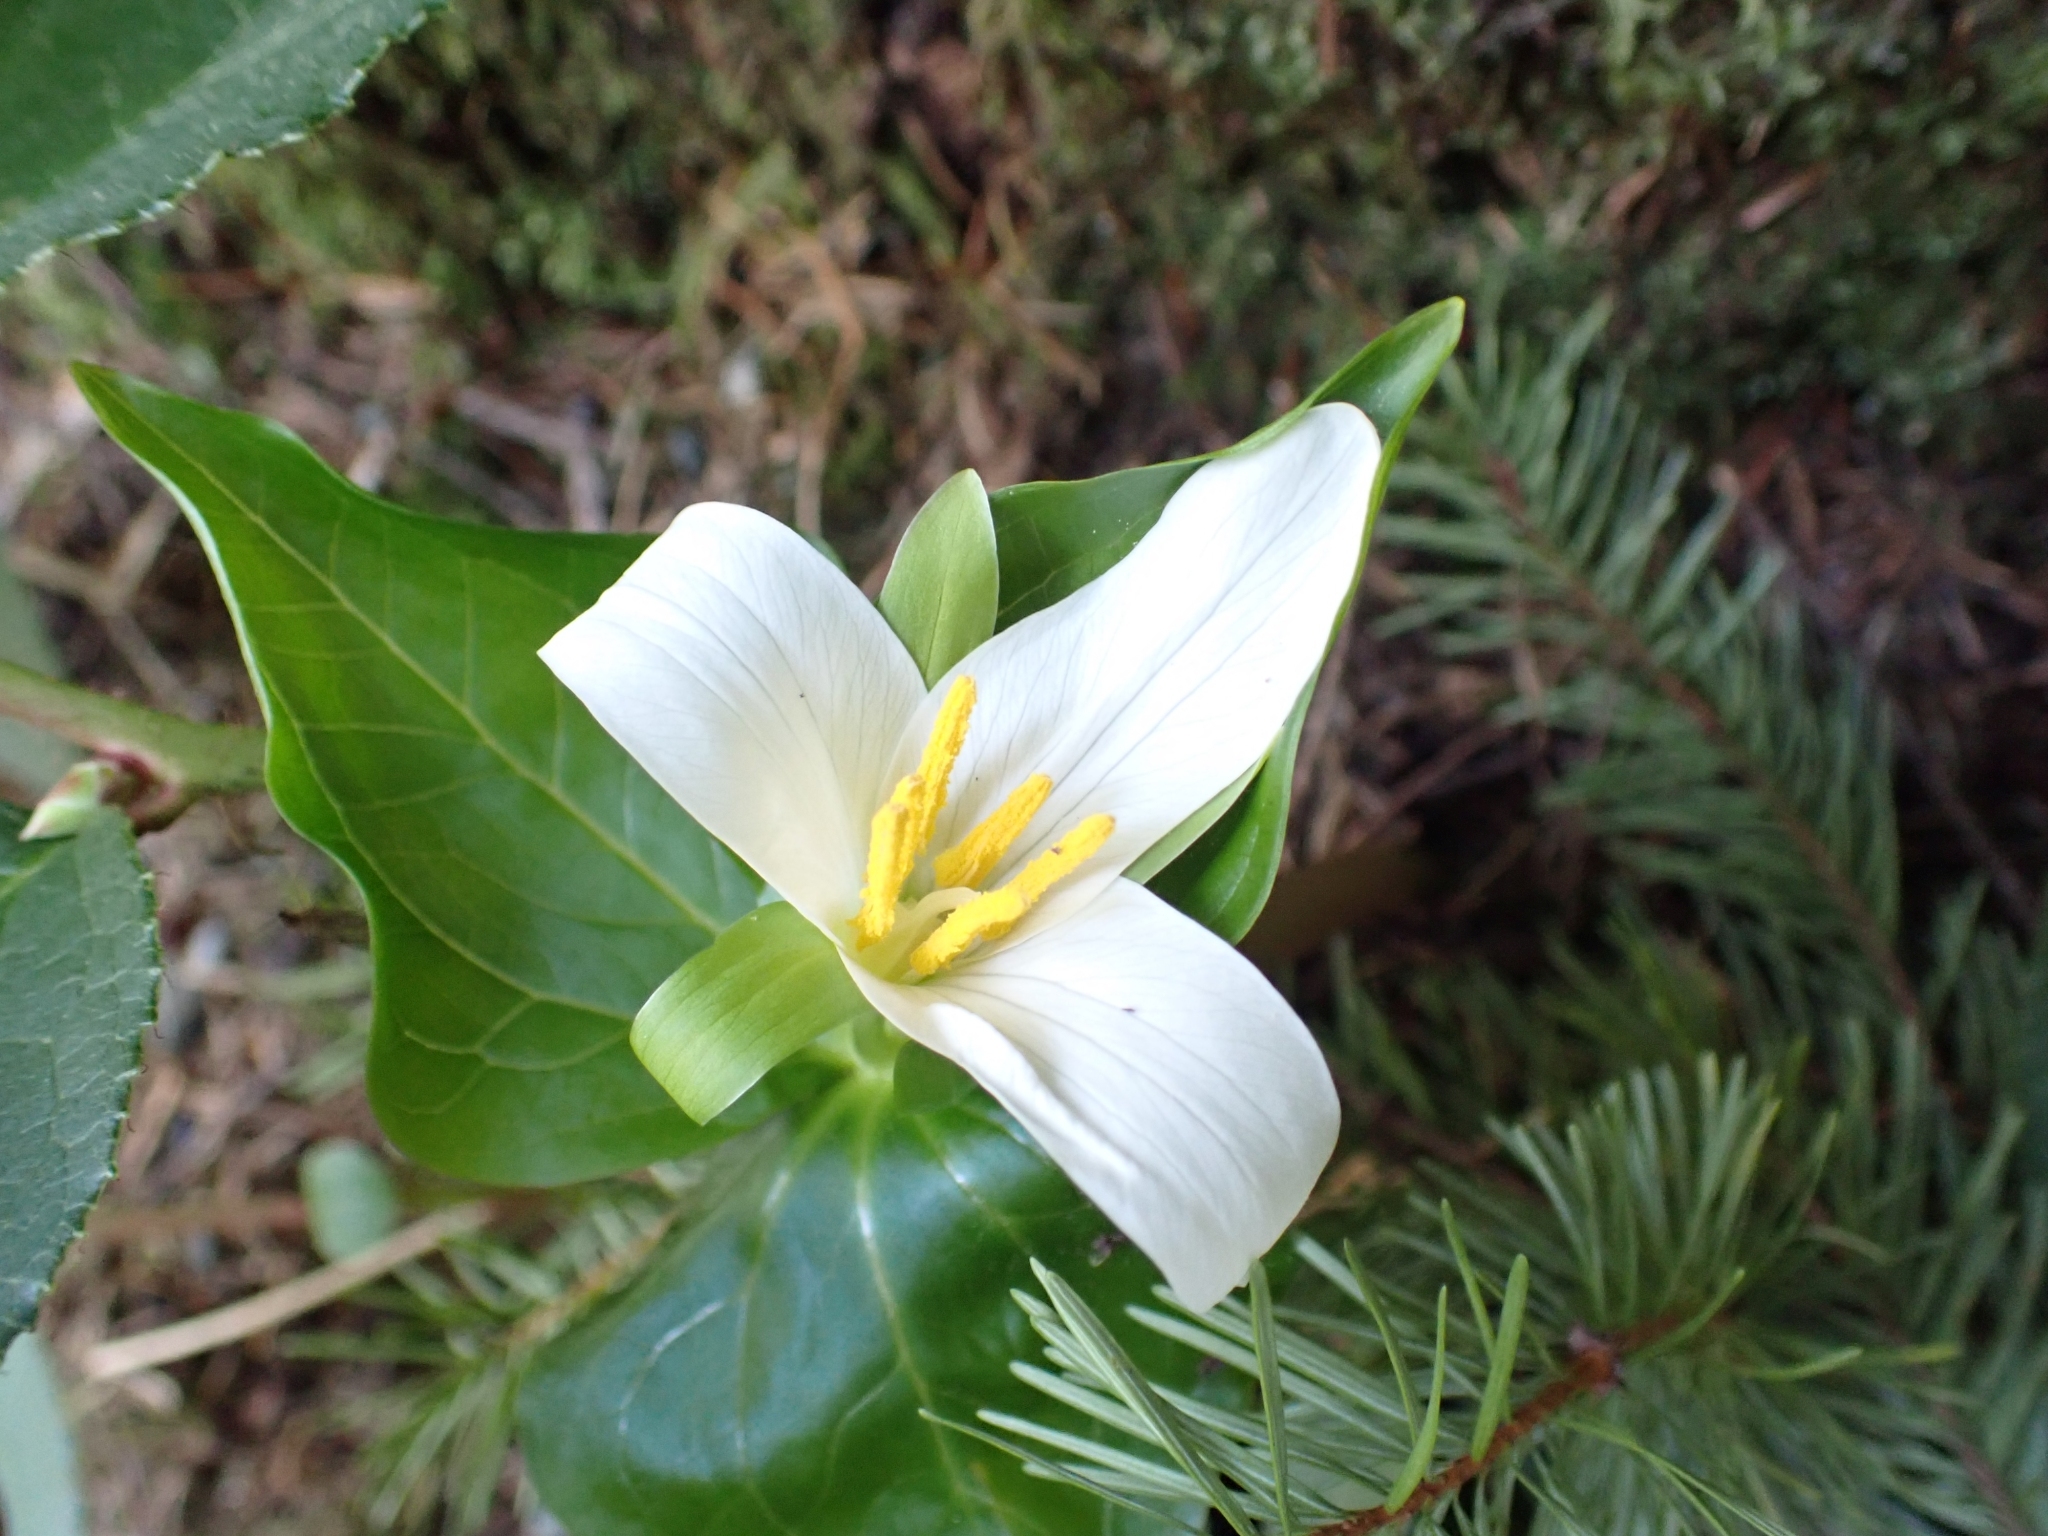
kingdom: Plantae
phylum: Tracheophyta
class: Liliopsida
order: Liliales
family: Melanthiaceae
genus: Trillium
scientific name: Trillium ovatum
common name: Pacific trillium
